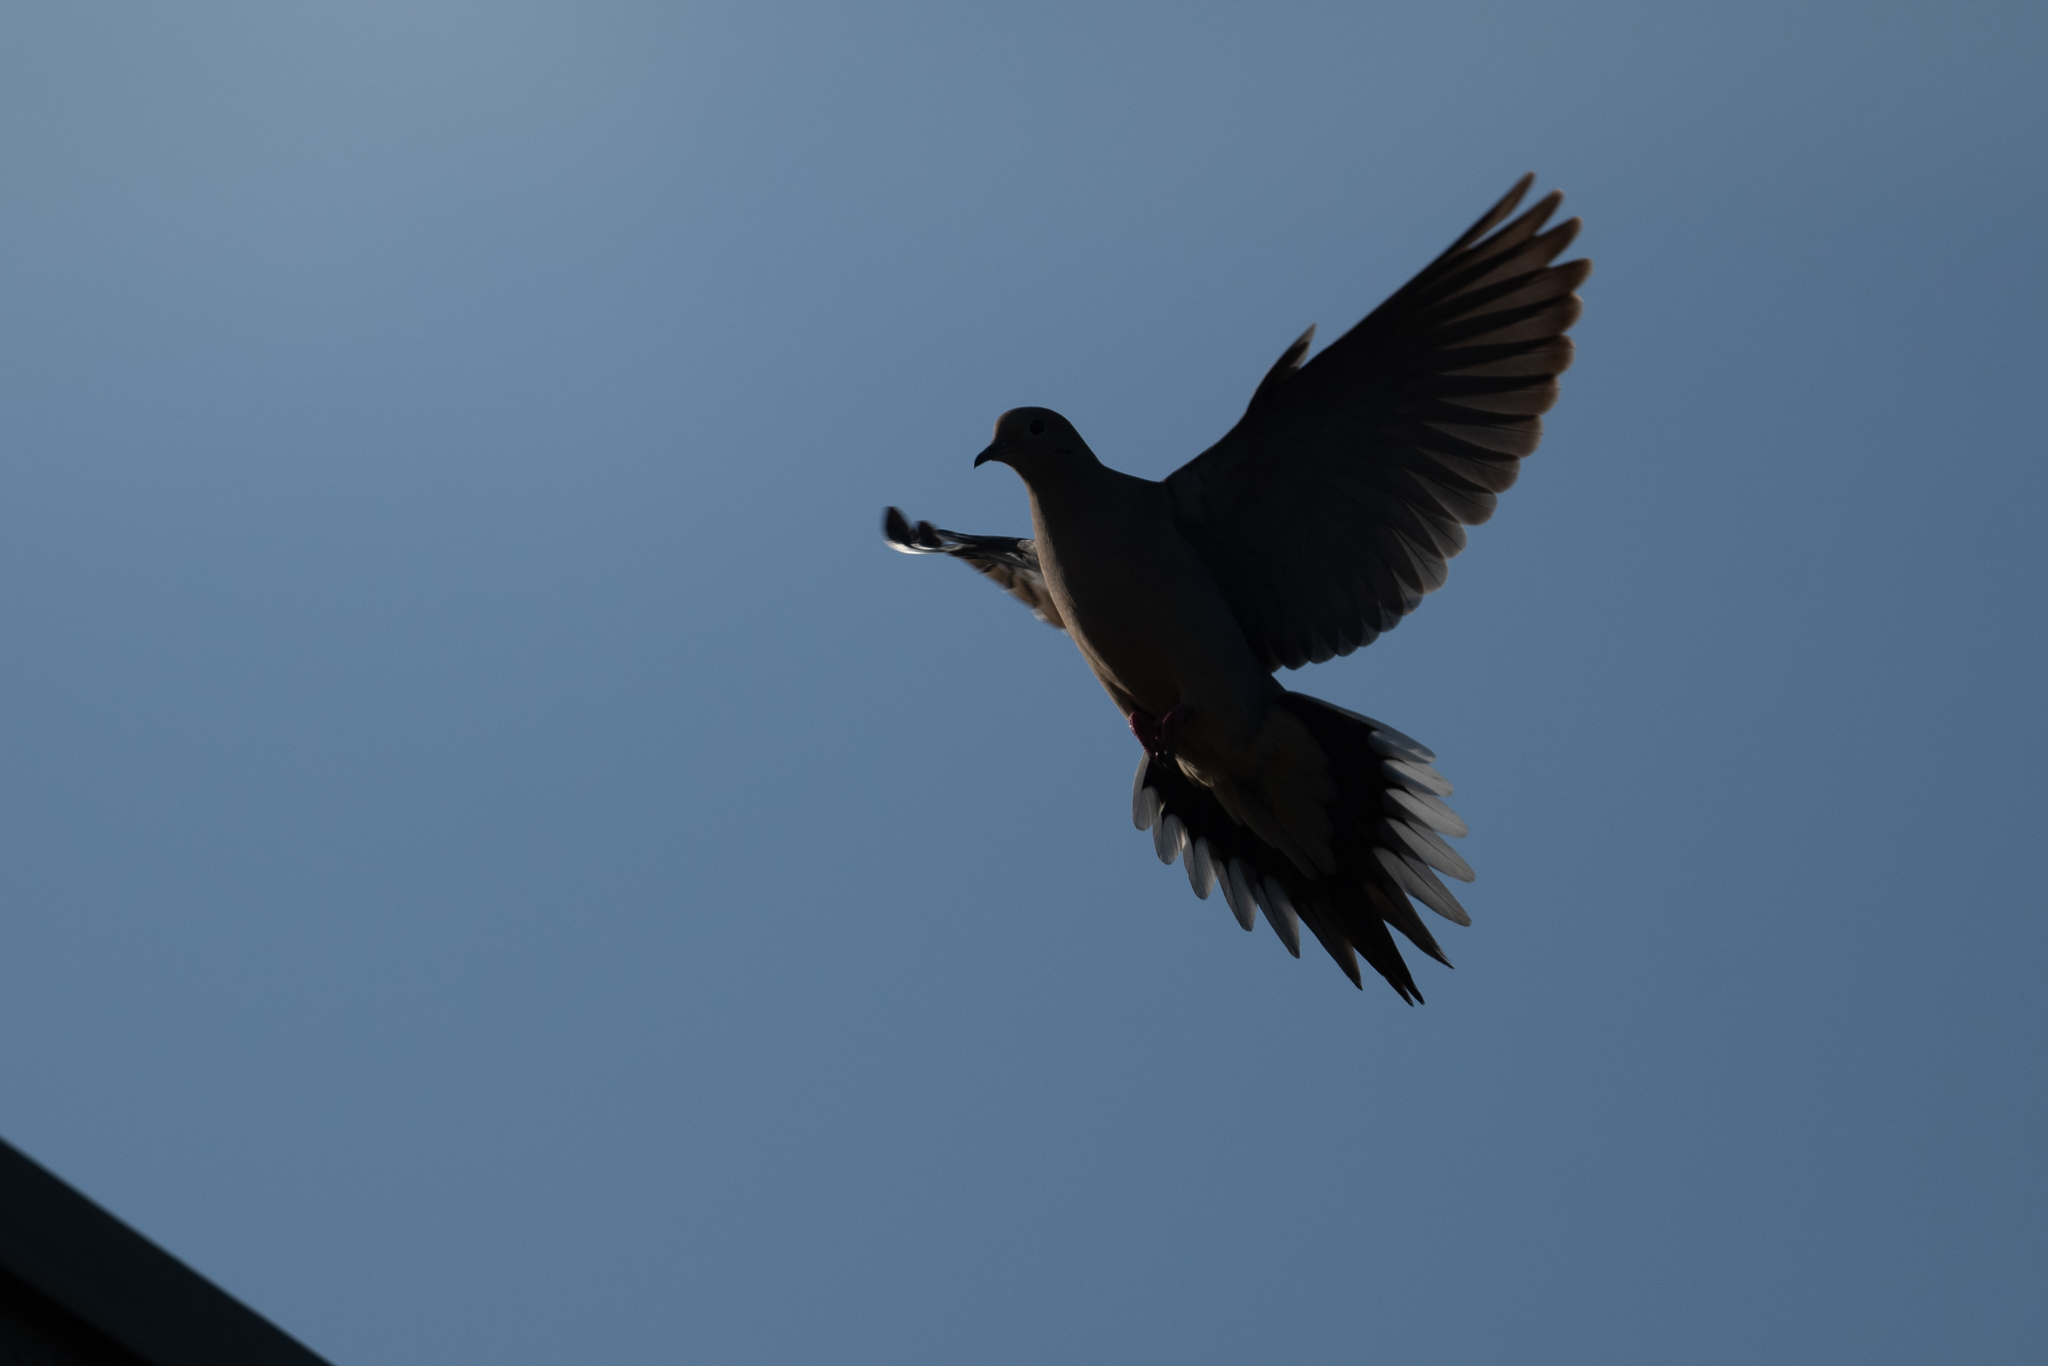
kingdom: Animalia
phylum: Chordata
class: Aves
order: Columbiformes
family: Columbidae
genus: Zenaida
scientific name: Zenaida macroura
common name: Mourning dove
